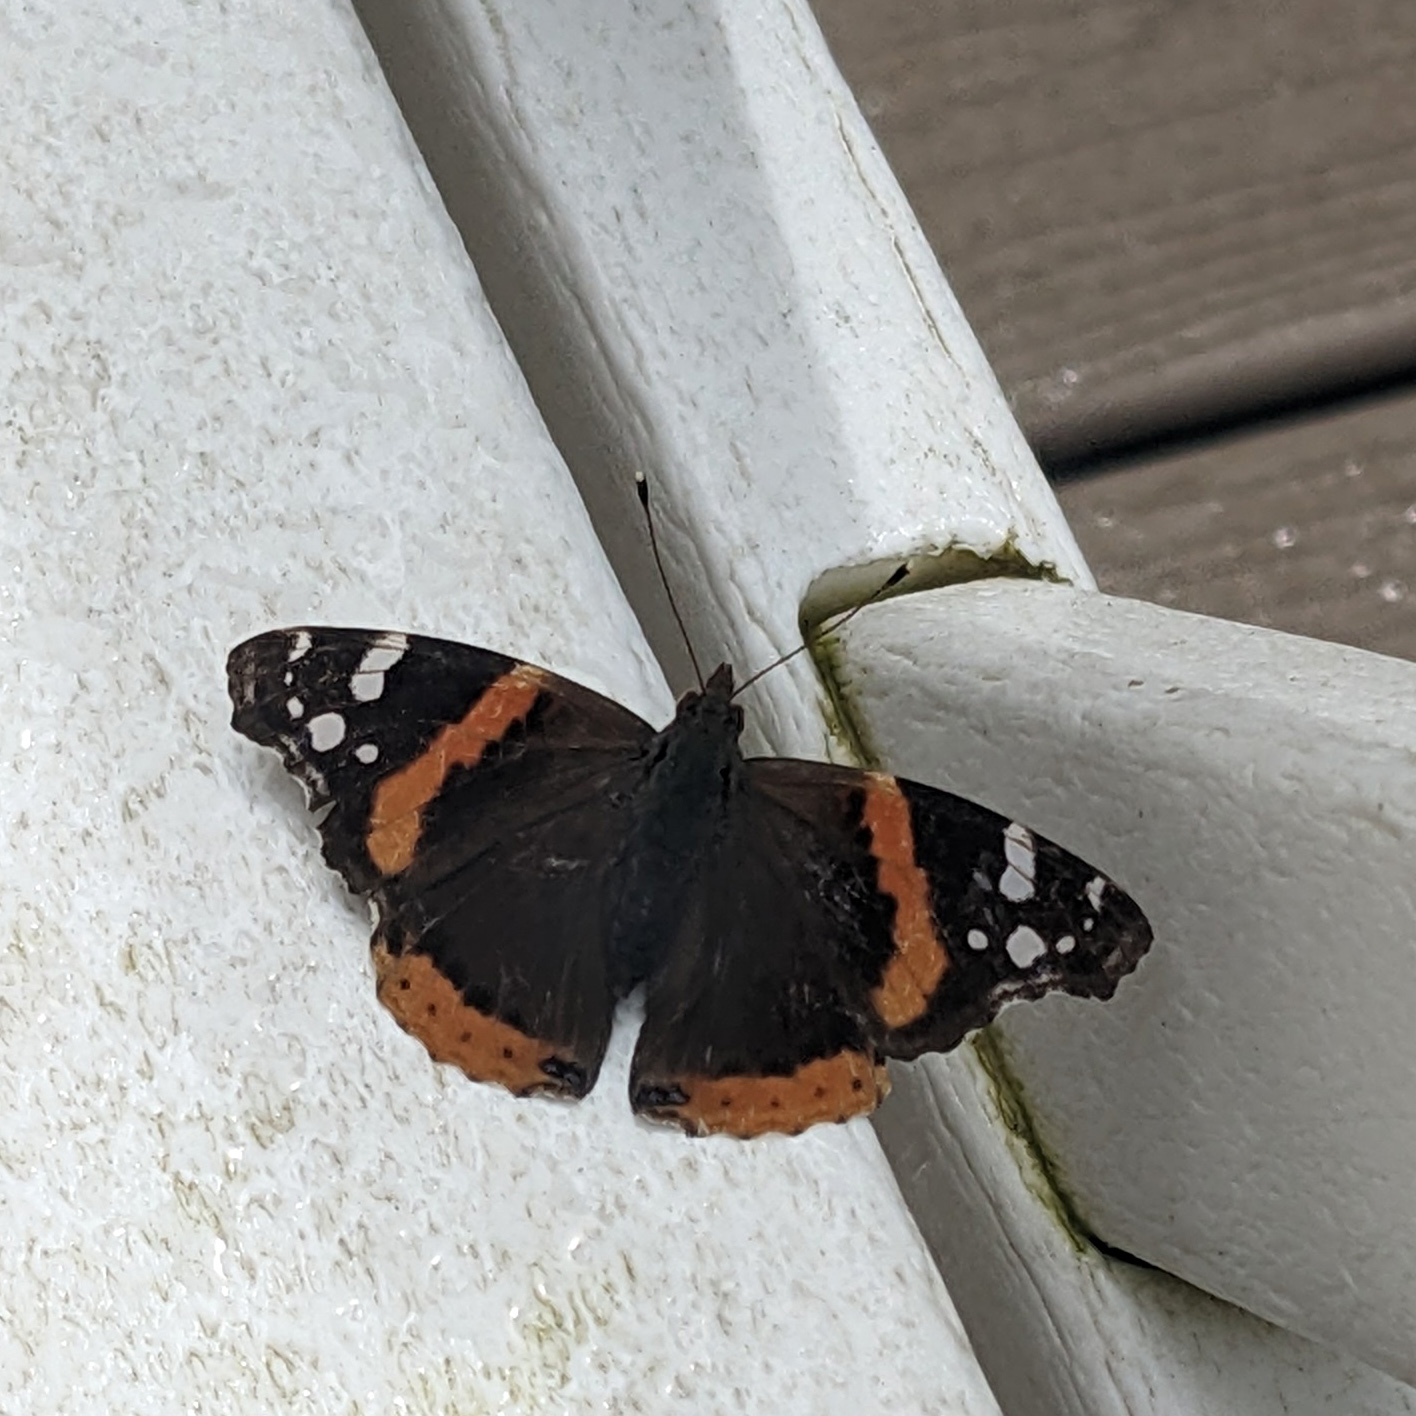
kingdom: Animalia
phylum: Arthropoda
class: Insecta
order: Lepidoptera
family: Nymphalidae
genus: Vanessa
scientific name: Vanessa atalanta
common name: Red admiral
